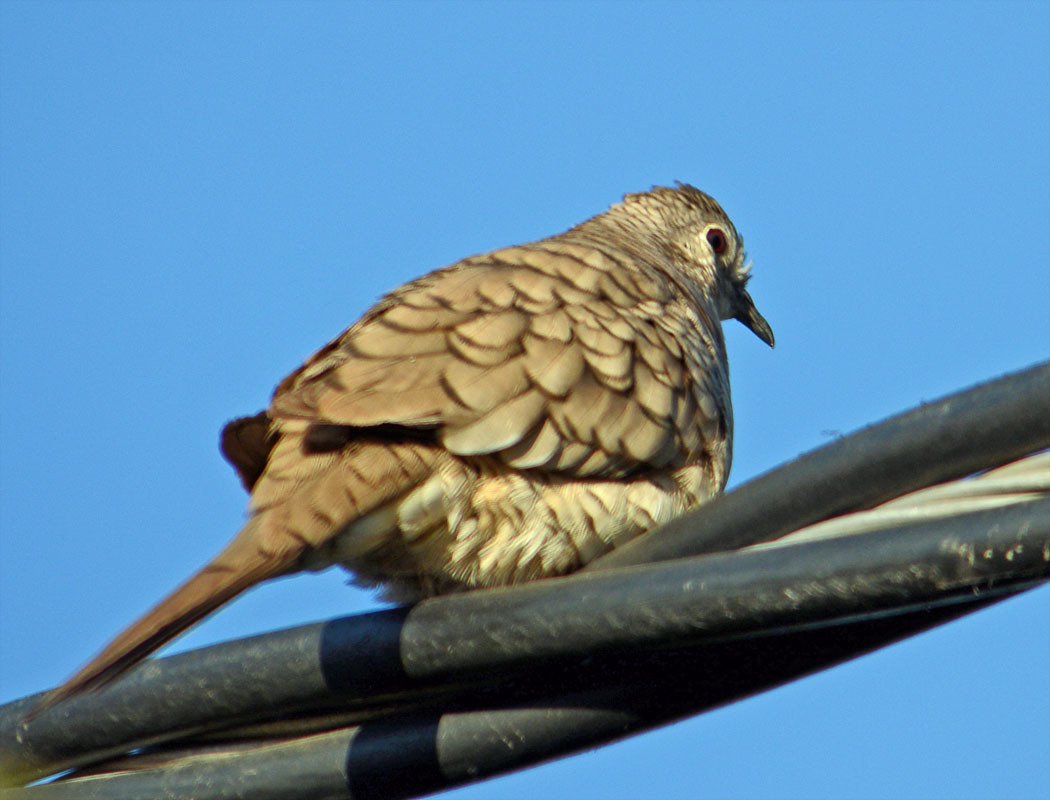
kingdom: Animalia
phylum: Chordata
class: Aves
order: Columbiformes
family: Columbidae
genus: Columbina
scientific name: Columbina inca
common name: Inca dove
